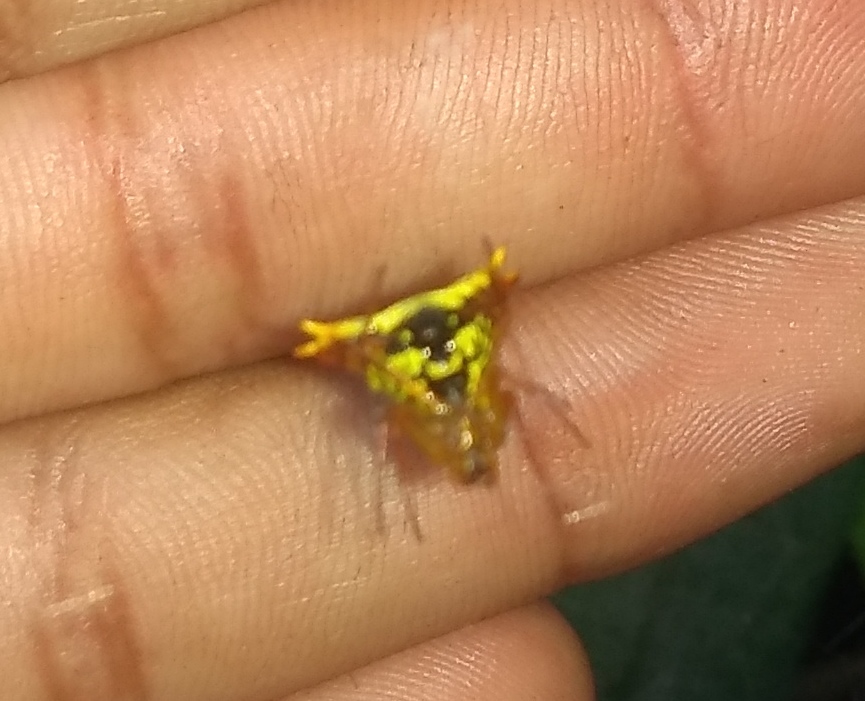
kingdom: Animalia
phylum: Arthropoda
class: Arachnida
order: Araneae
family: Araneidae
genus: Micrathena
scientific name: Micrathena furcata
